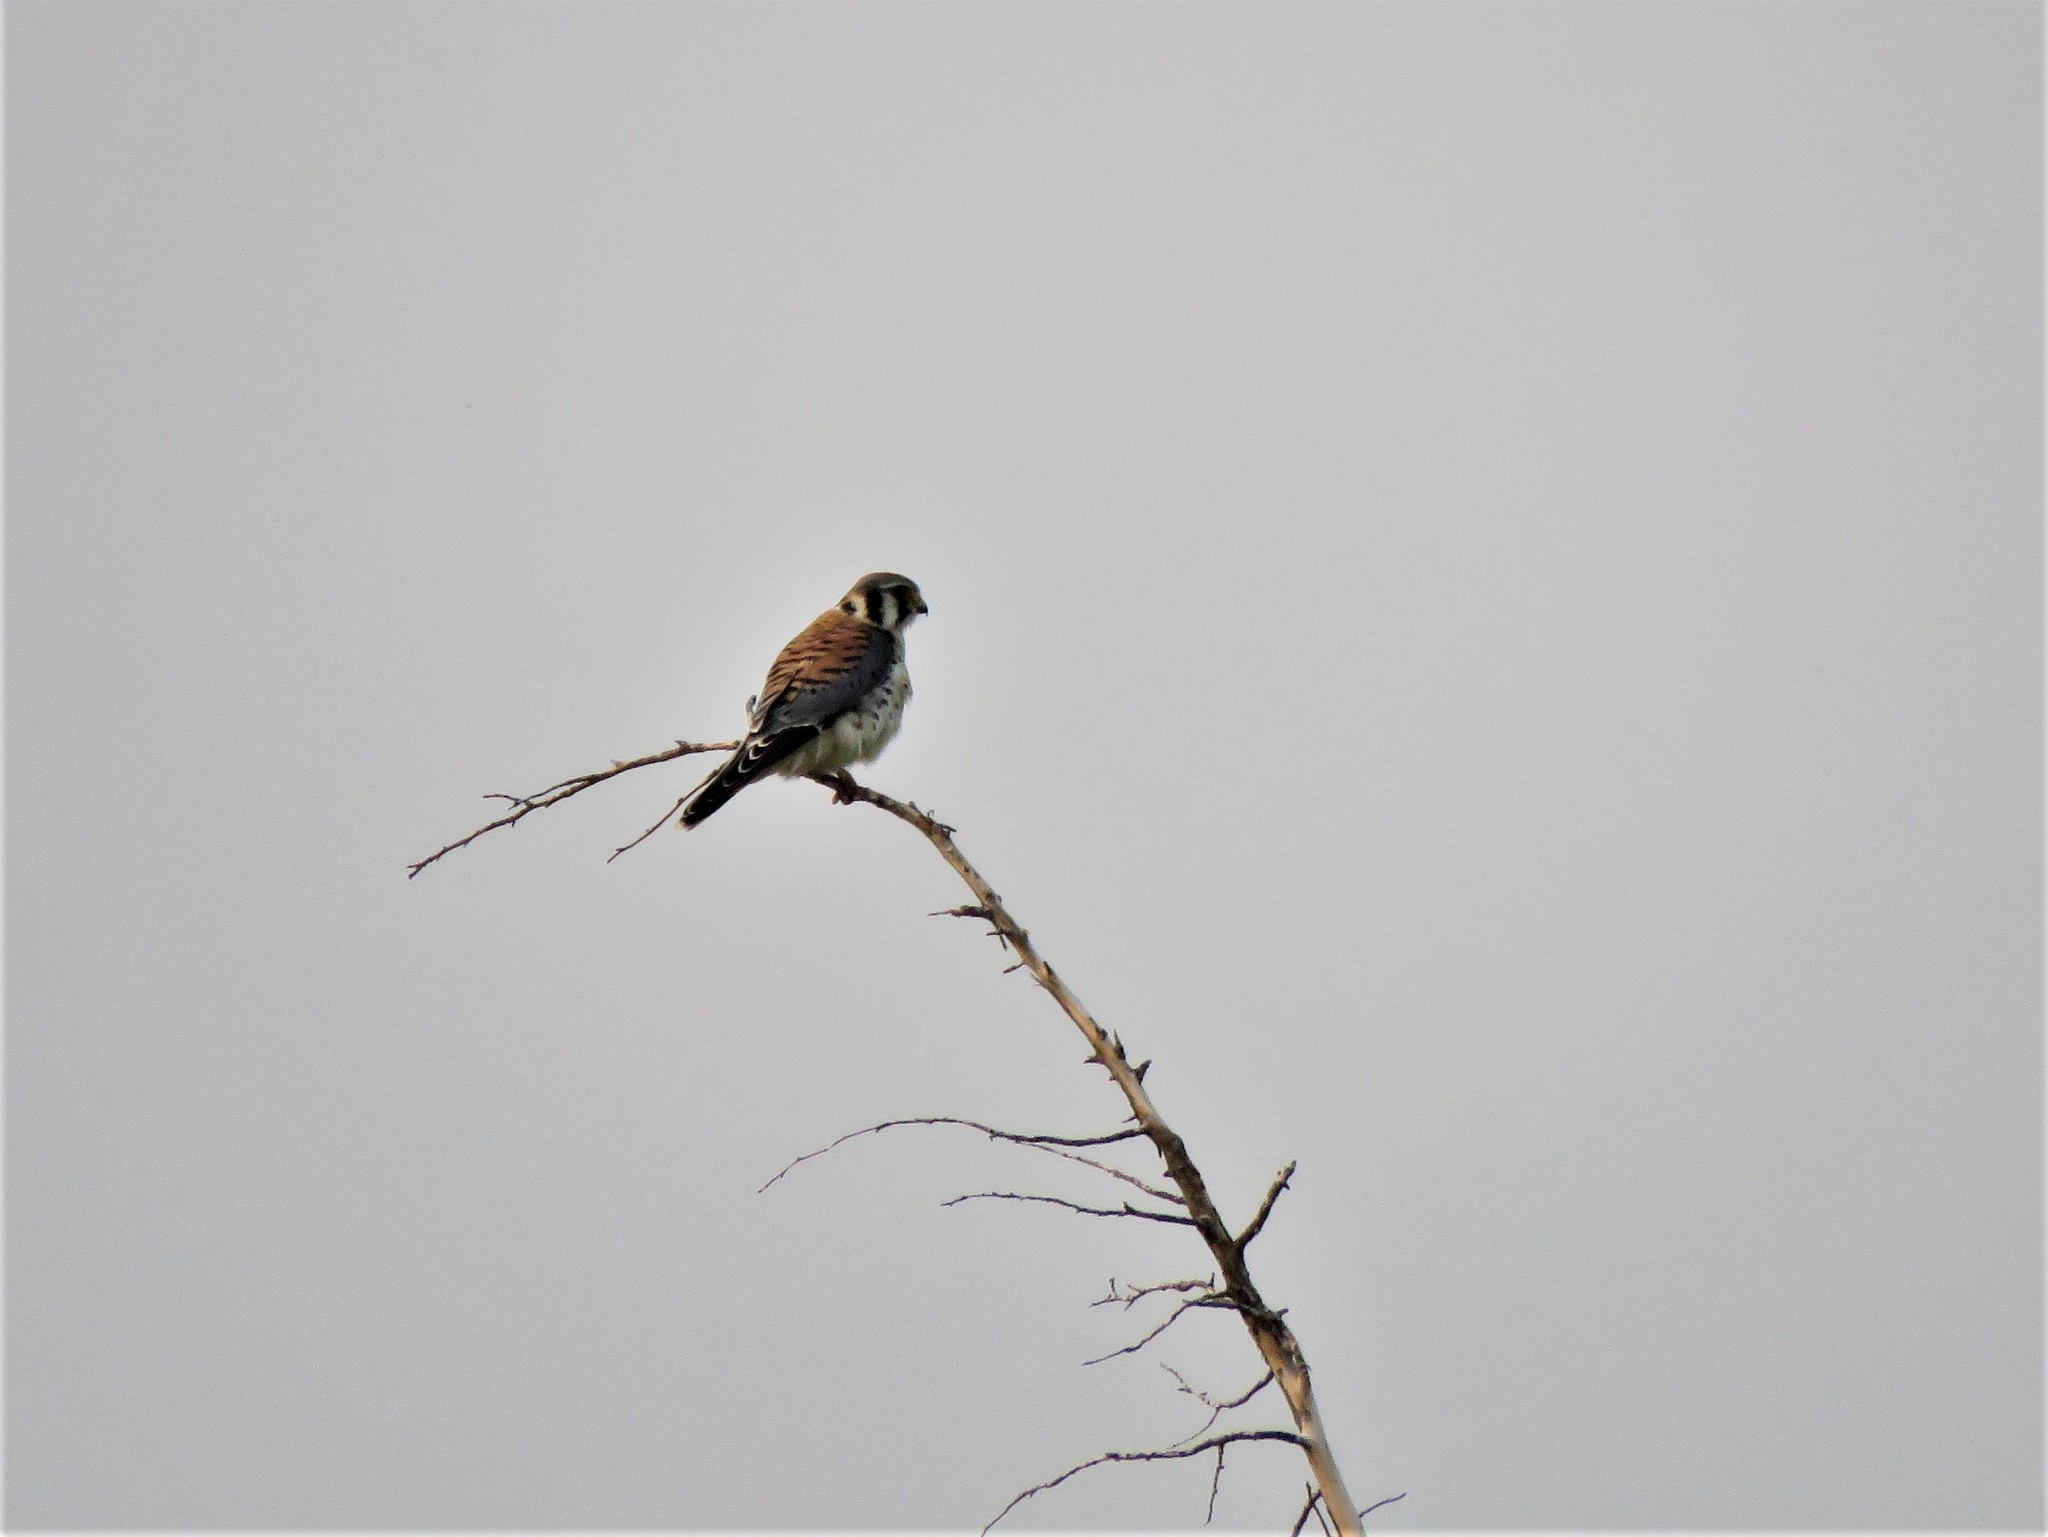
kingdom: Animalia
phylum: Chordata
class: Aves
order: Falconiformes
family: Falconidae
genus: Falco
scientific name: Falco sparverius
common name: American kestrel
